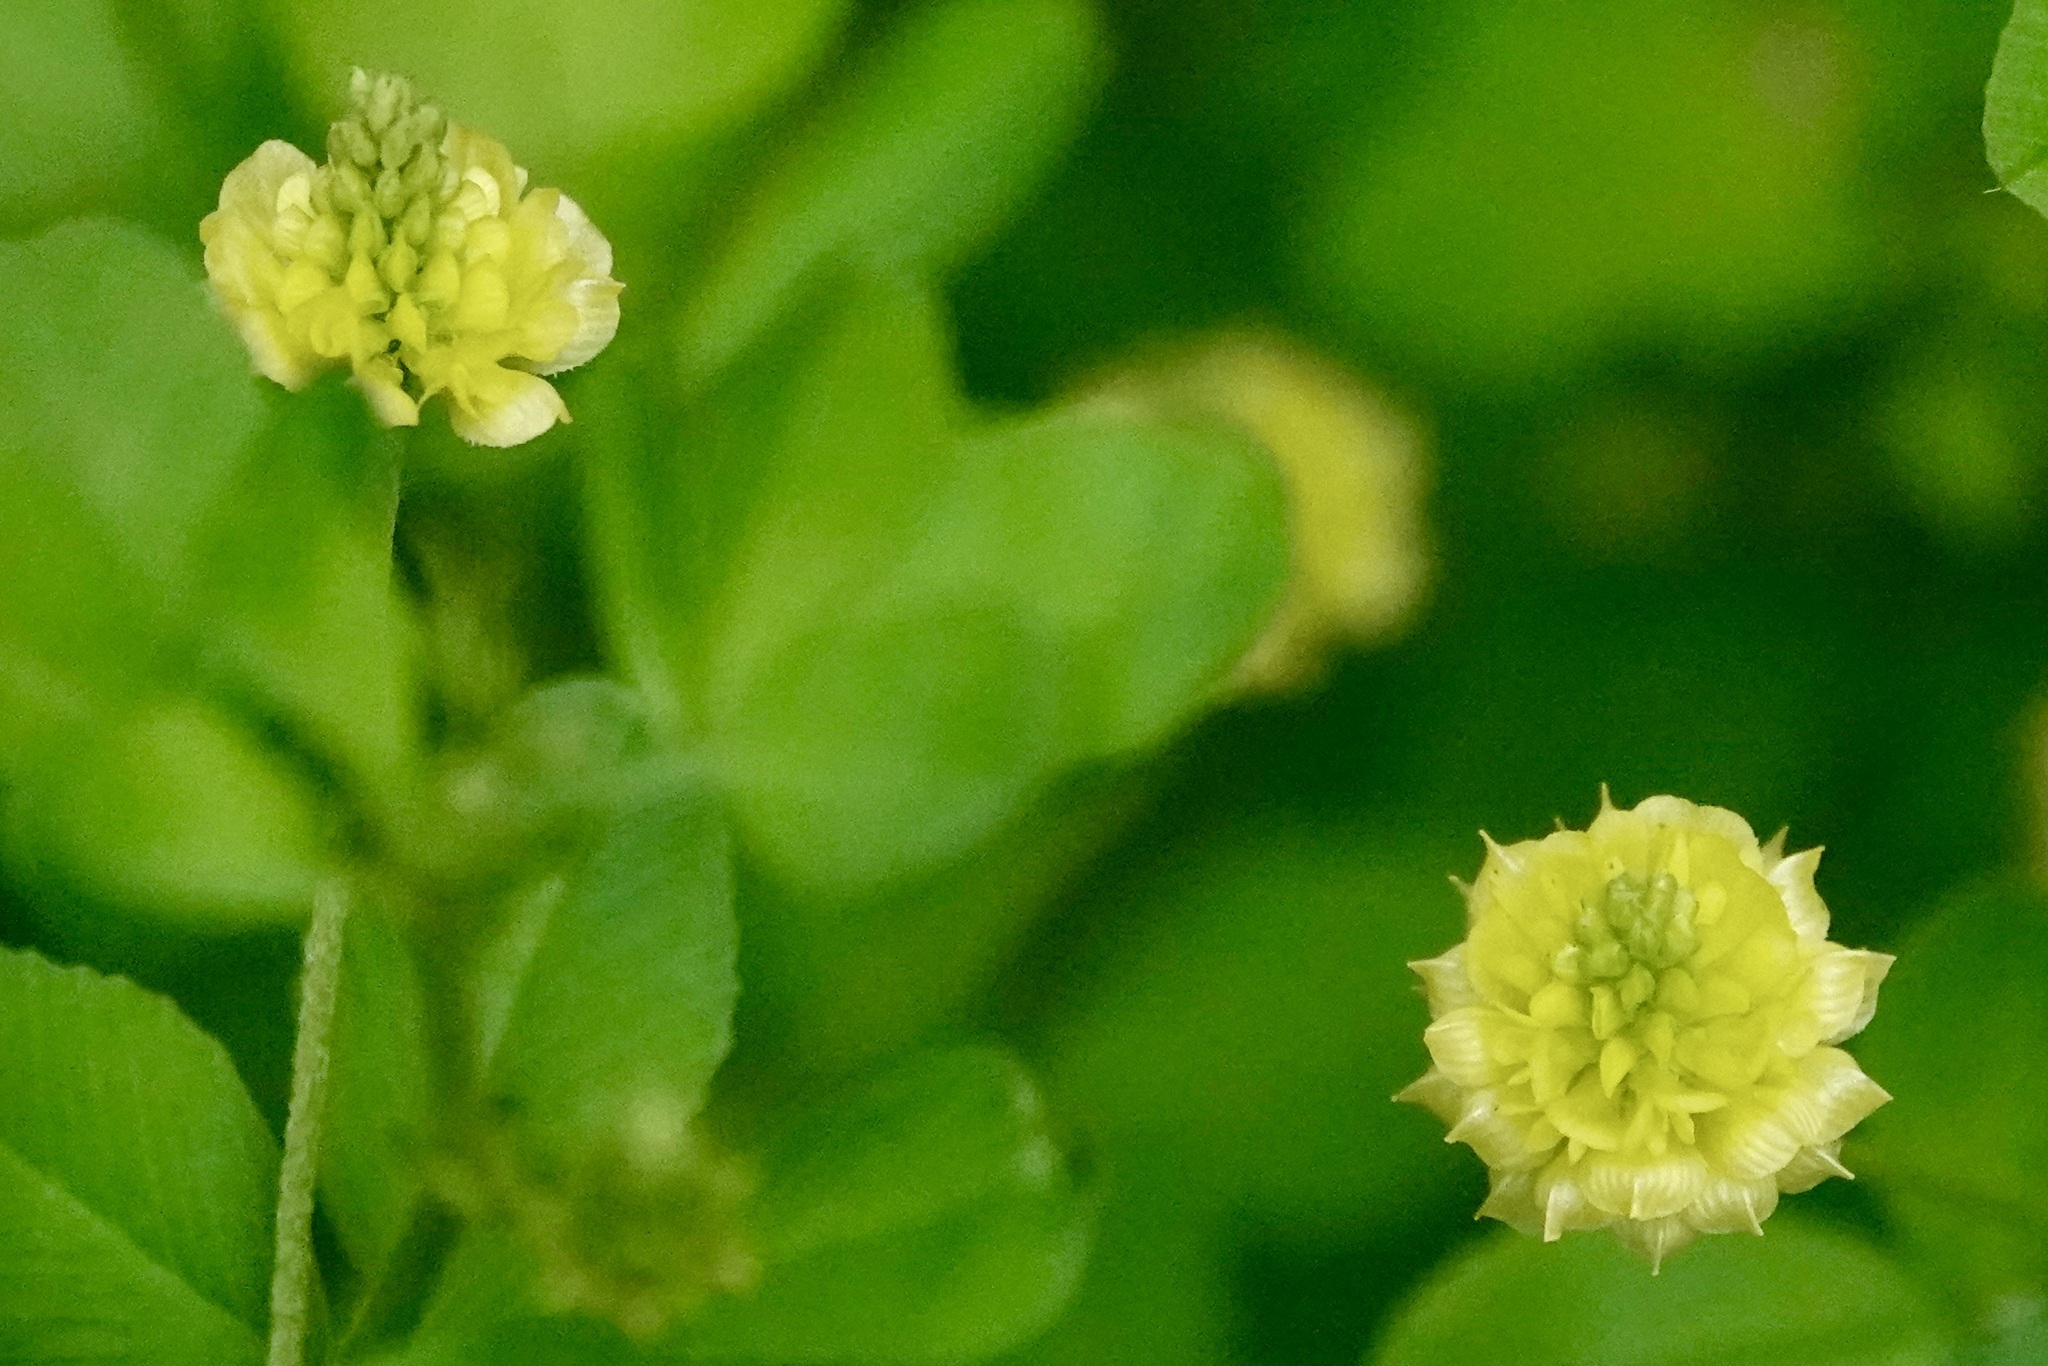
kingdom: Plantae
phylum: Tracheophyta
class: Magnoliopsida
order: Fabales
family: Fabaceae
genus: Trifolium
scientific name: Trifolium campestre
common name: Field clover
